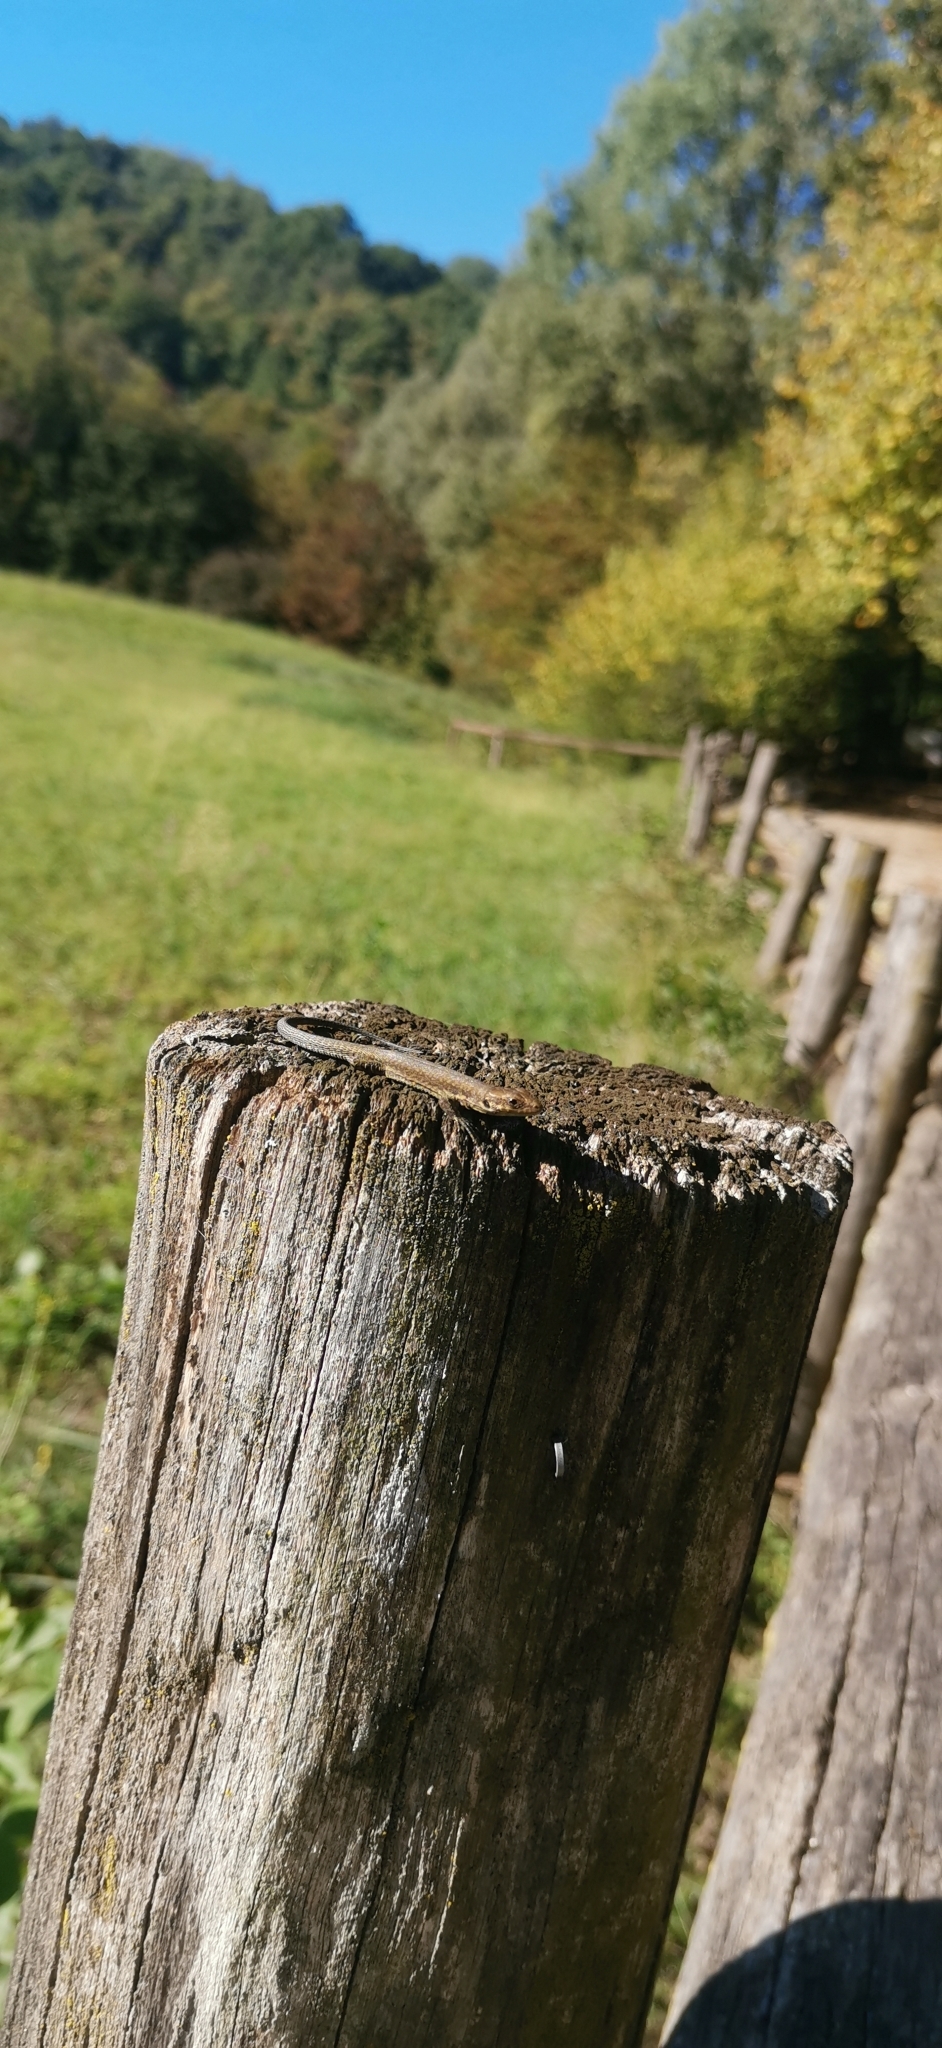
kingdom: Animalia
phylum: Chordata
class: Squamata
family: Lacertidae
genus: Podarcis
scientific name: Podarcis muralis
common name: Common wall lizard
